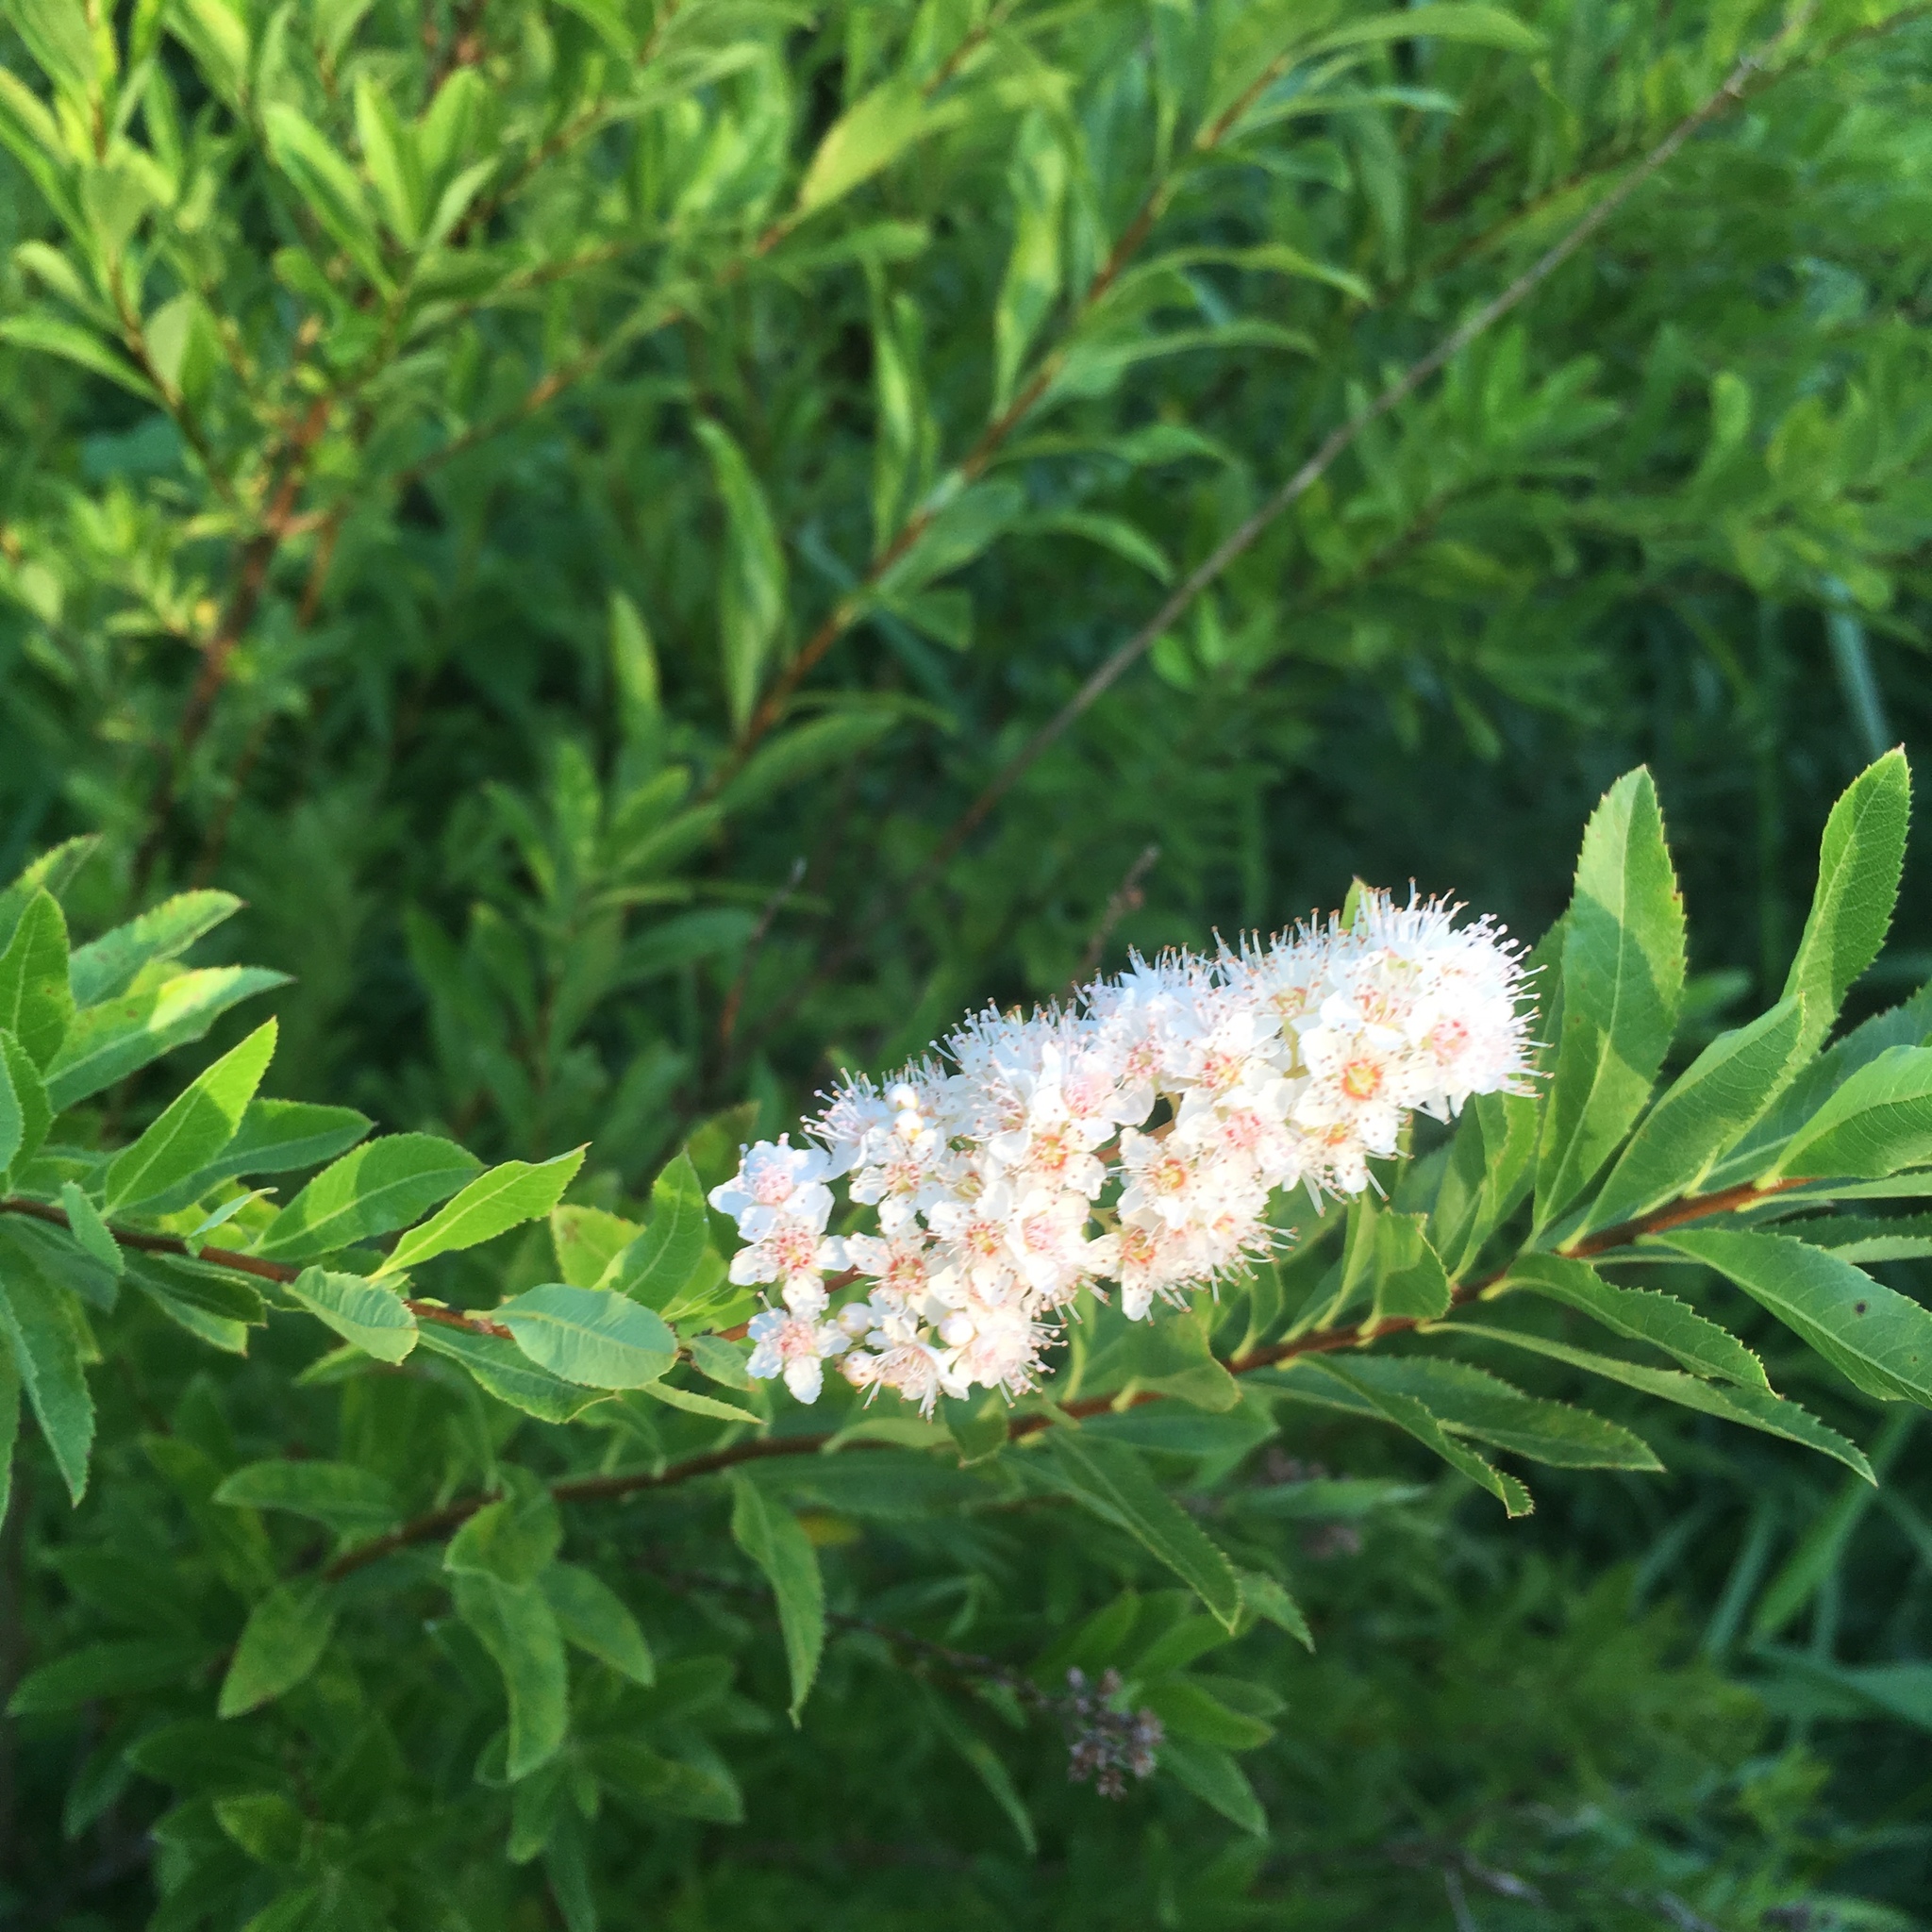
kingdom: Plantae
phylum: Tracheophyta
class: Magnoliopsida
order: Rosales
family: Rosaceae
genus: Spiraea
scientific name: Spiraea alba
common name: Pale bridewort
